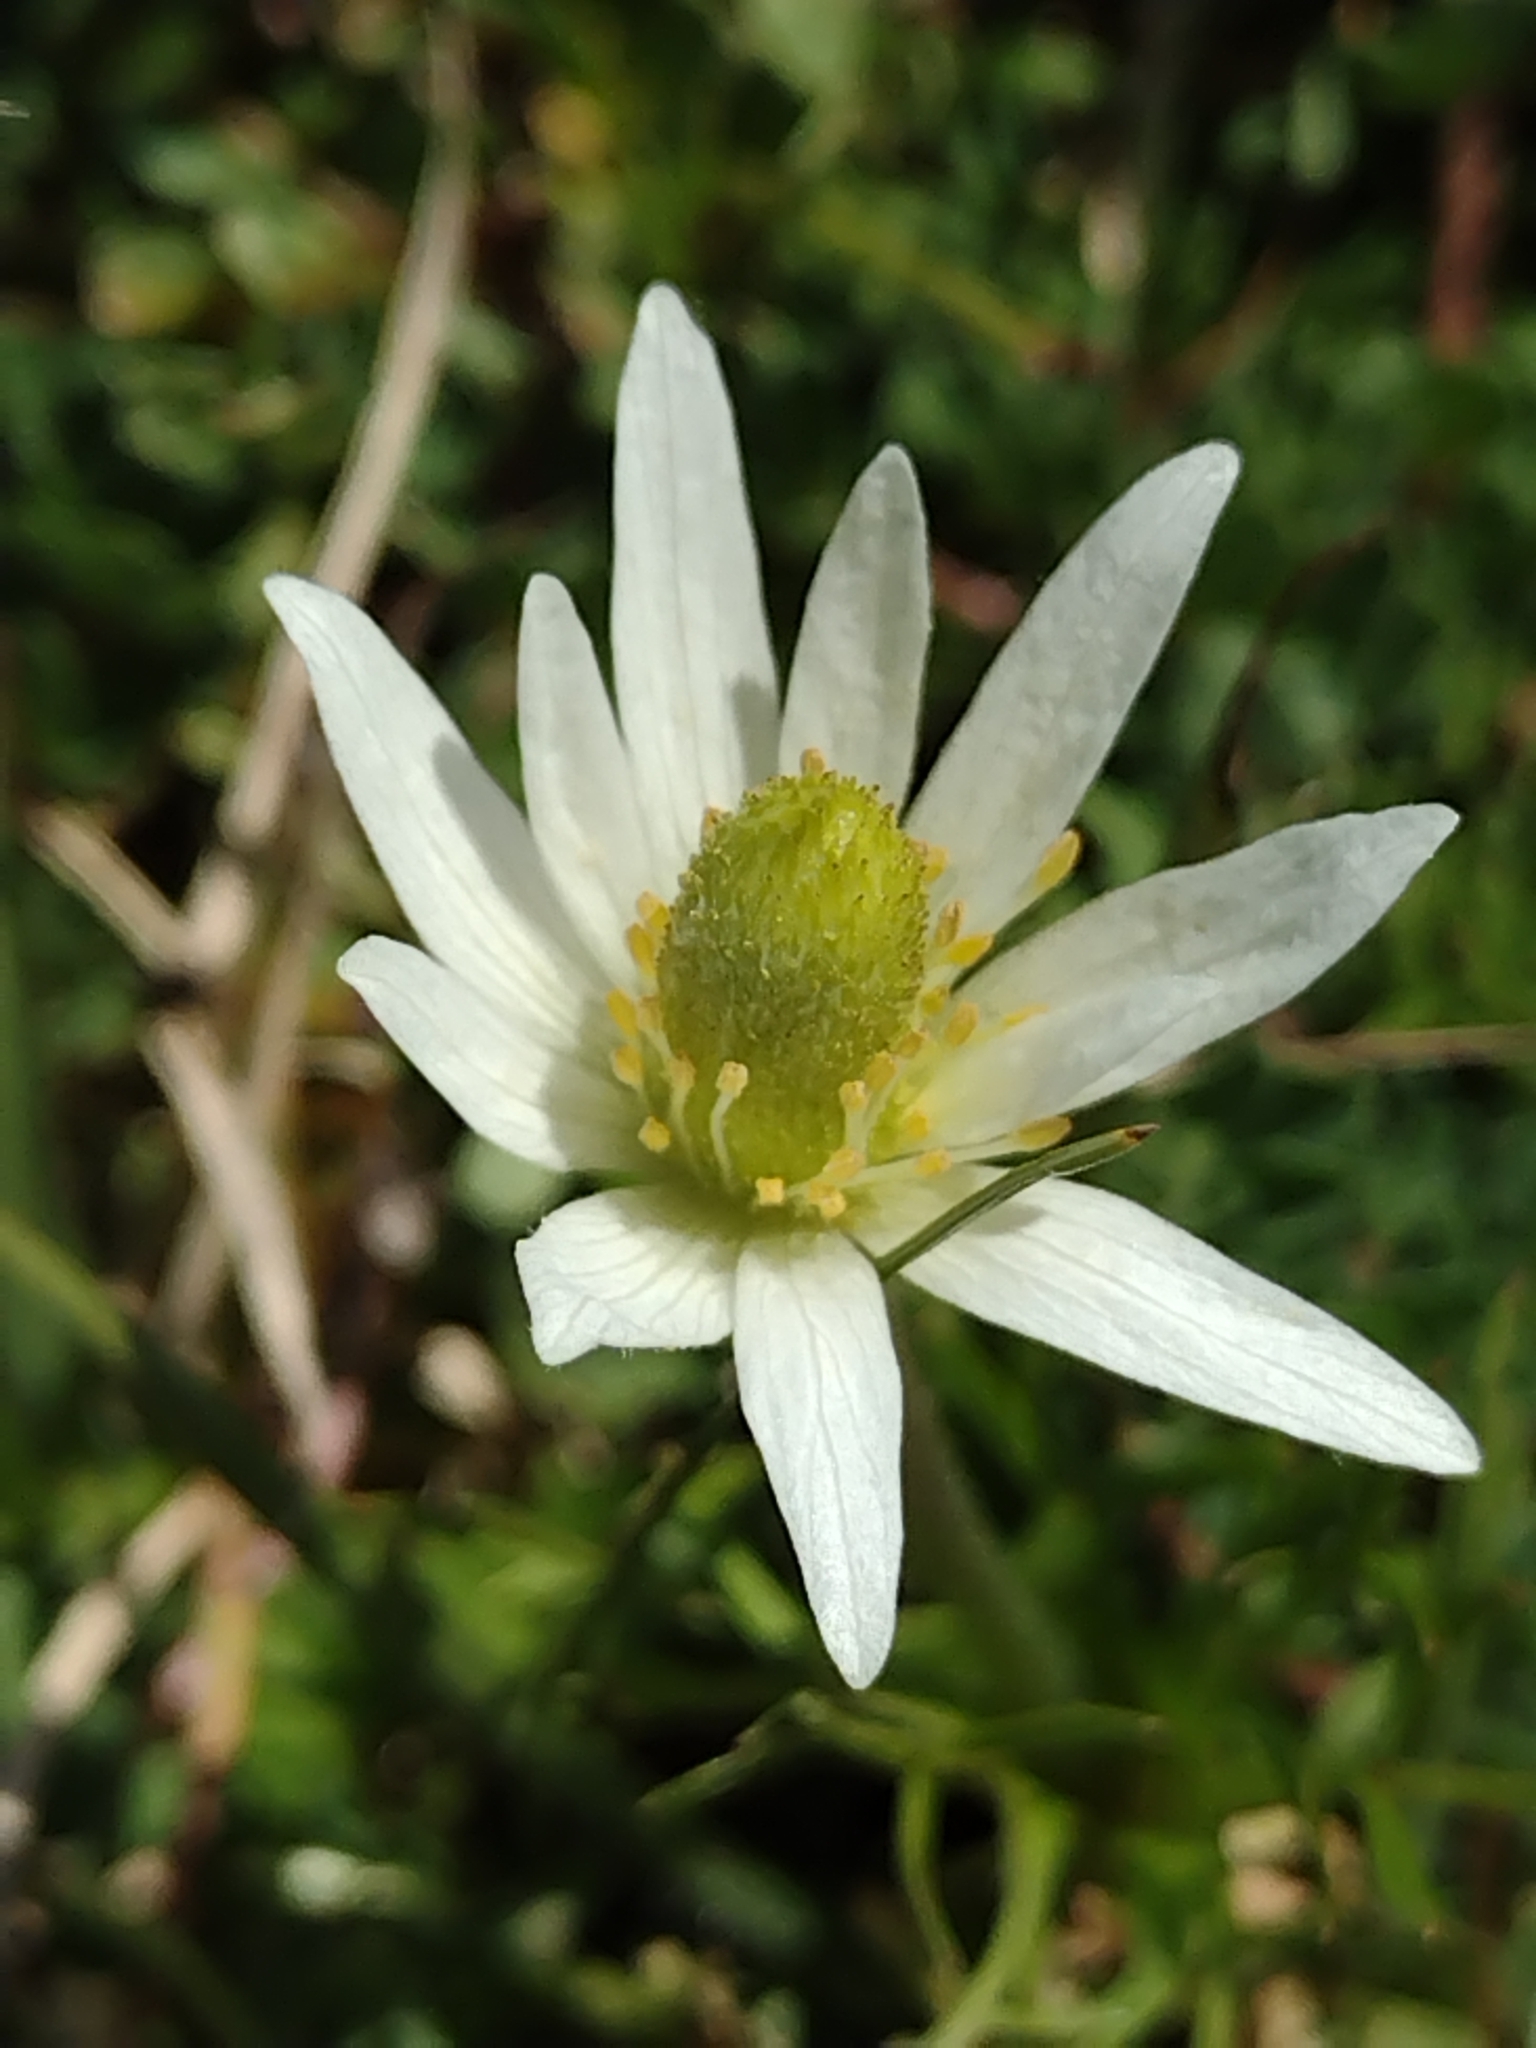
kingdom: Plantae
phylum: Tracheophyta
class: Magnoliopsida
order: Ranunculales
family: Ranunculaceae
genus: Anemone
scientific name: Anemone decapetala
